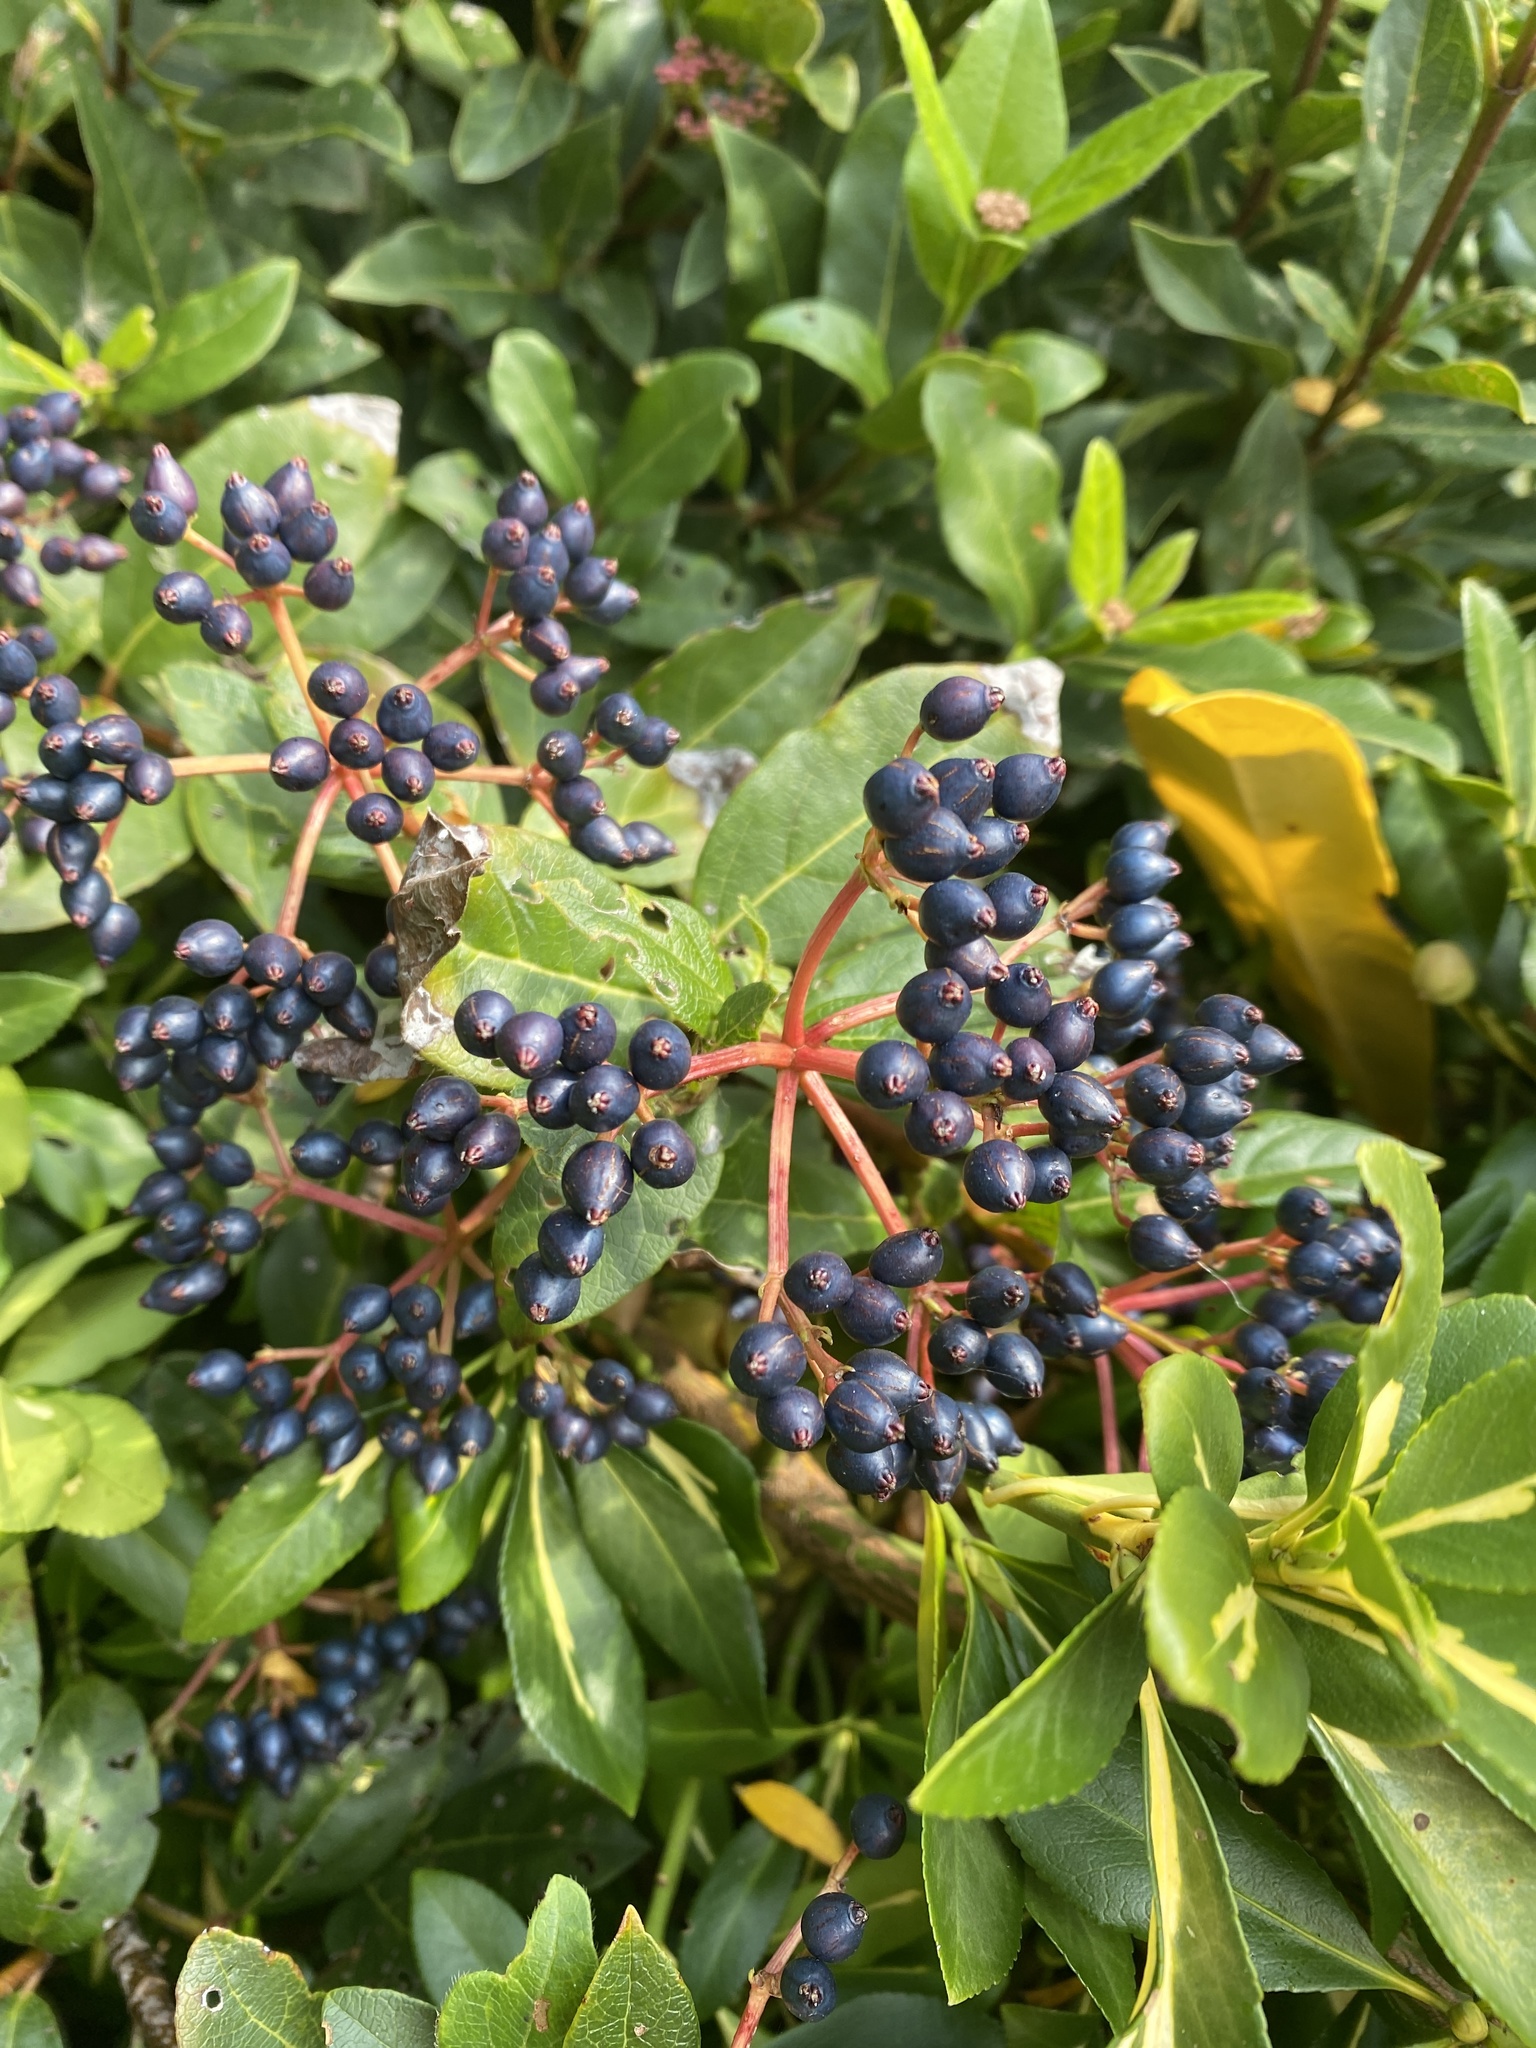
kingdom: Plantae
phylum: Tracheophyta
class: Magnoliopsida
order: Dipsacales
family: Viburnaceae
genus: Viburnum
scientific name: Viburnum tinus
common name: Laurustinus
